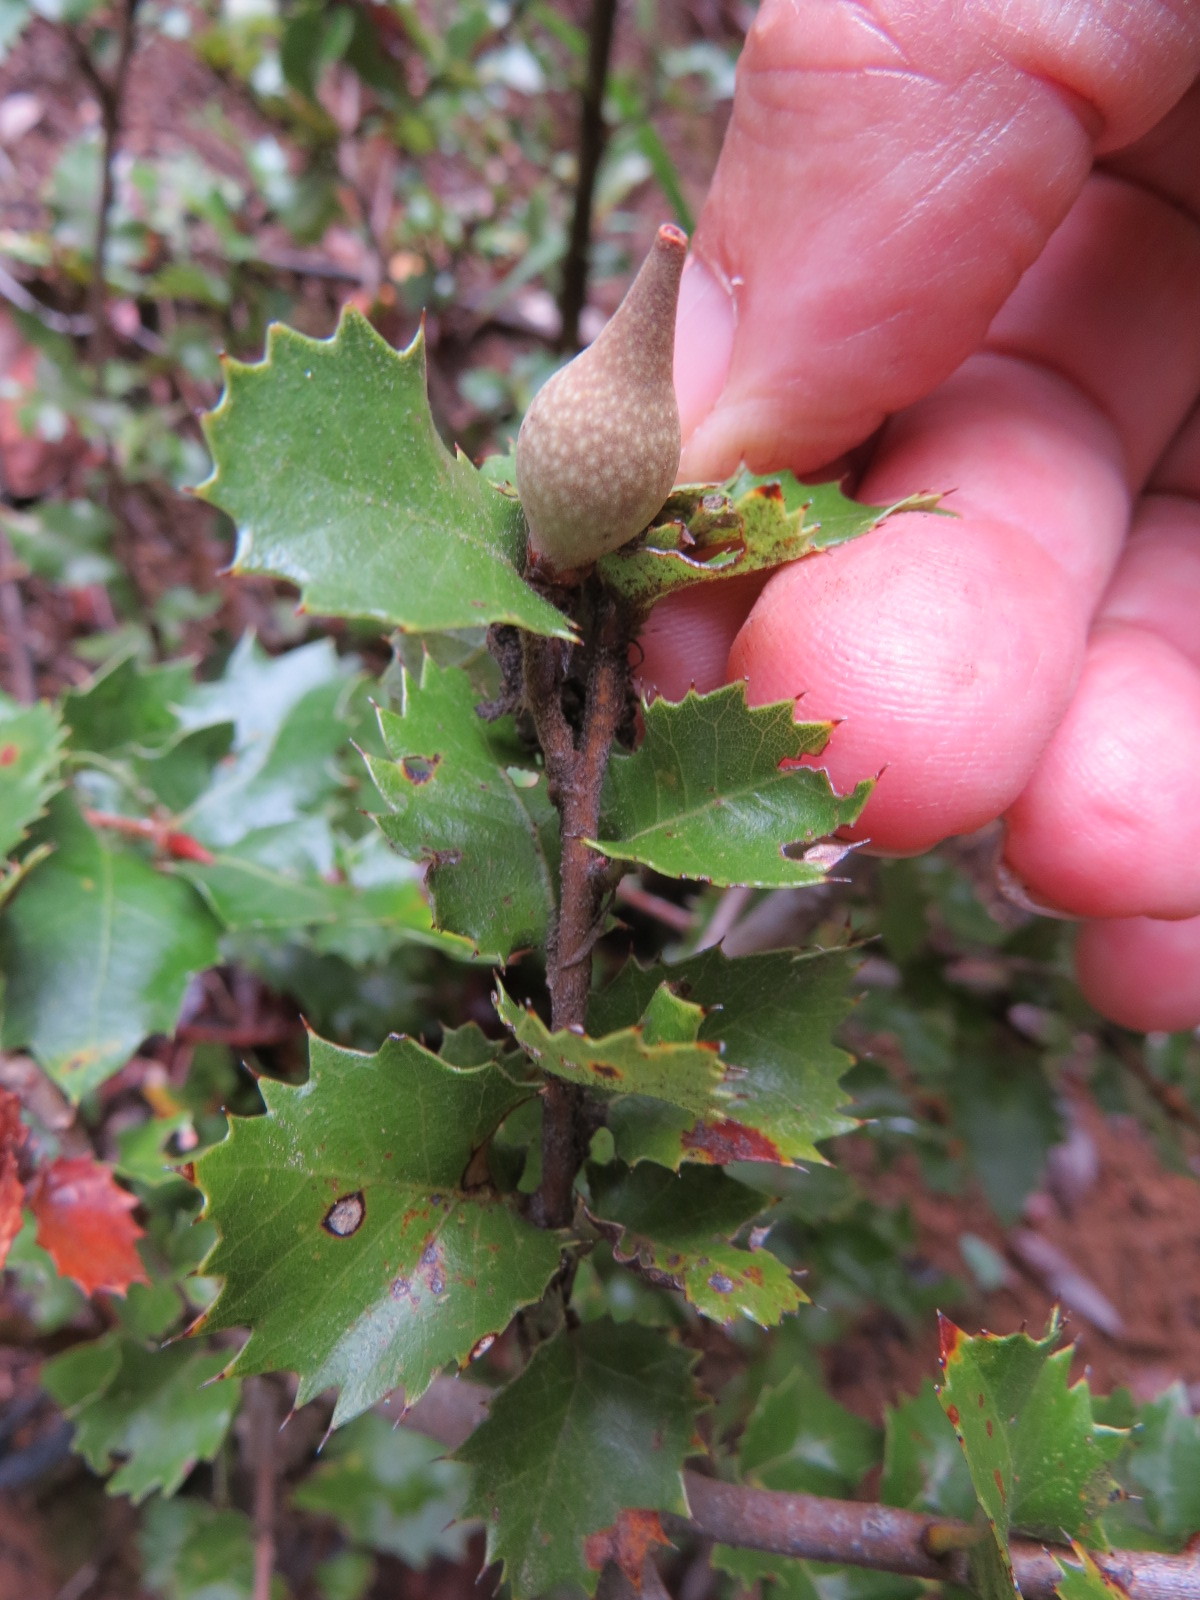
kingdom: Animalia
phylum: Arthropoda
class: Insecta
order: Hymenoptera
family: Cynipidae
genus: Heteroecus
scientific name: Heteroecus pacificus
